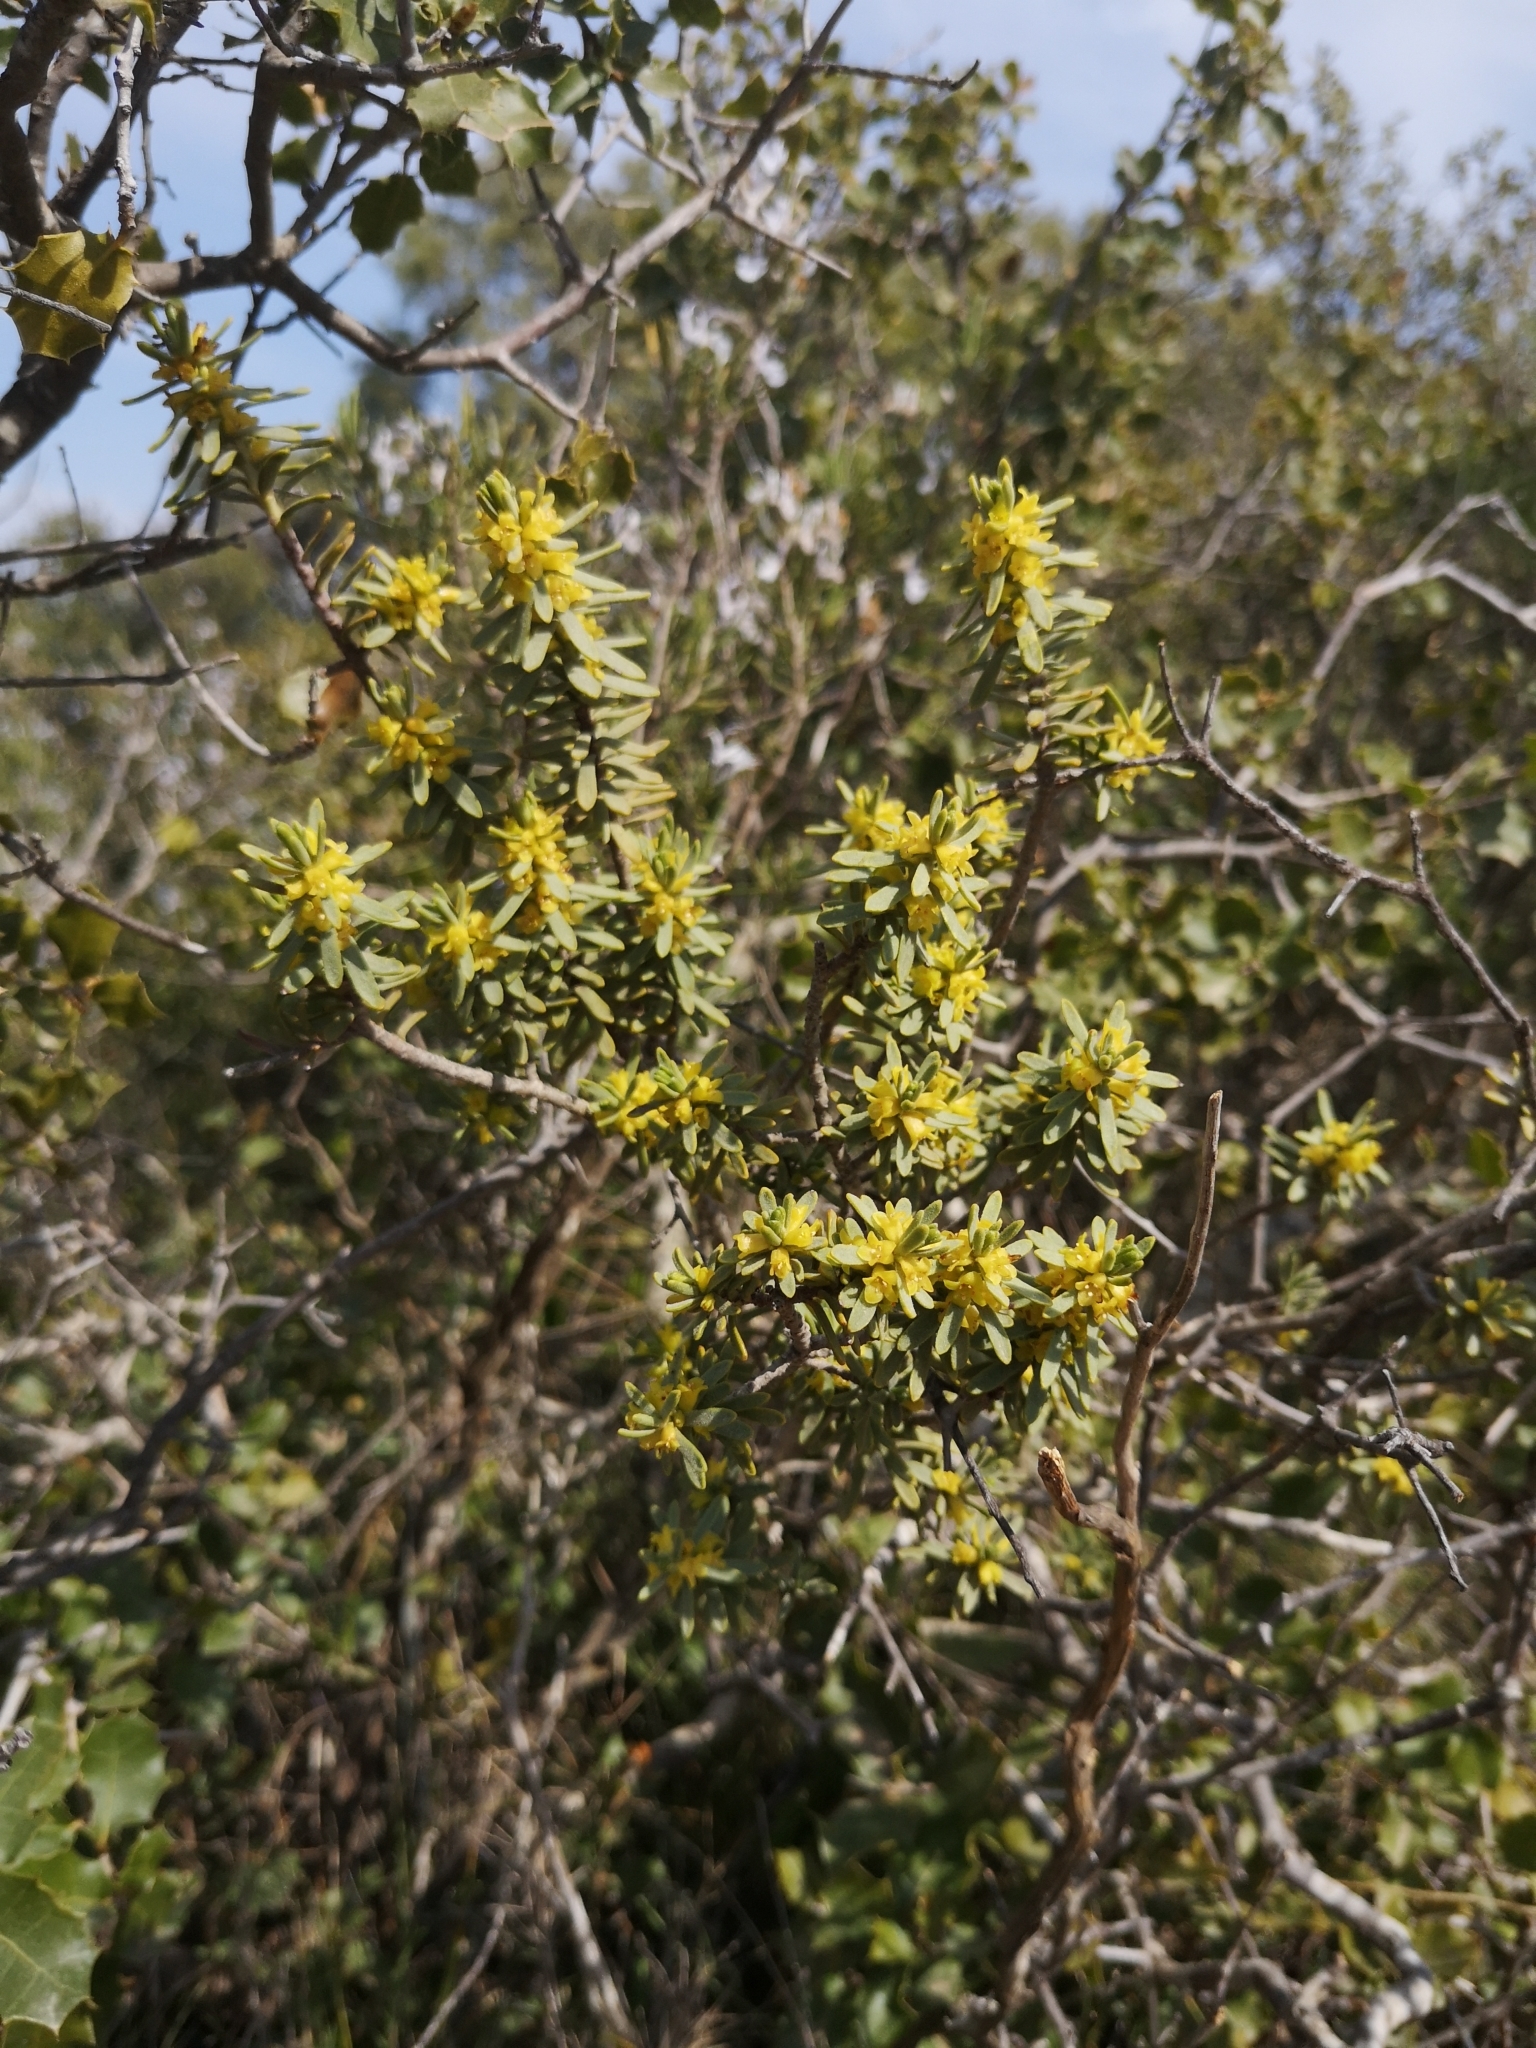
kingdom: Plantae
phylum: Tracheophyta
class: Magnoliopsida
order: Malvales
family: Thymelaeaceae
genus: Thymelaea
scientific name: Thymelaea tinctoria
